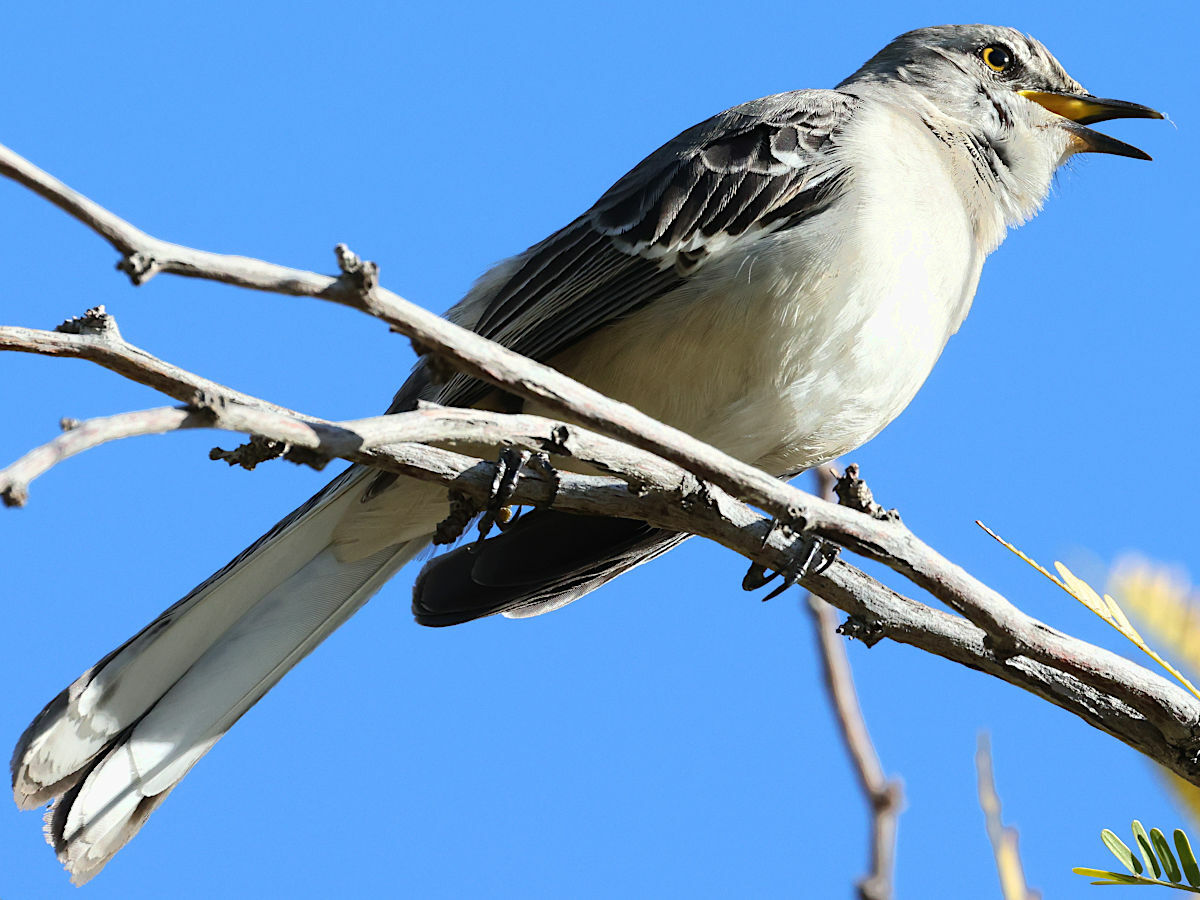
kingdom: Animalia
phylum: Chordata
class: Aves
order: Passeriformes
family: Mimidae
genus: Mimus
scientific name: Mimus polyglottos
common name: Northern mockingbird
